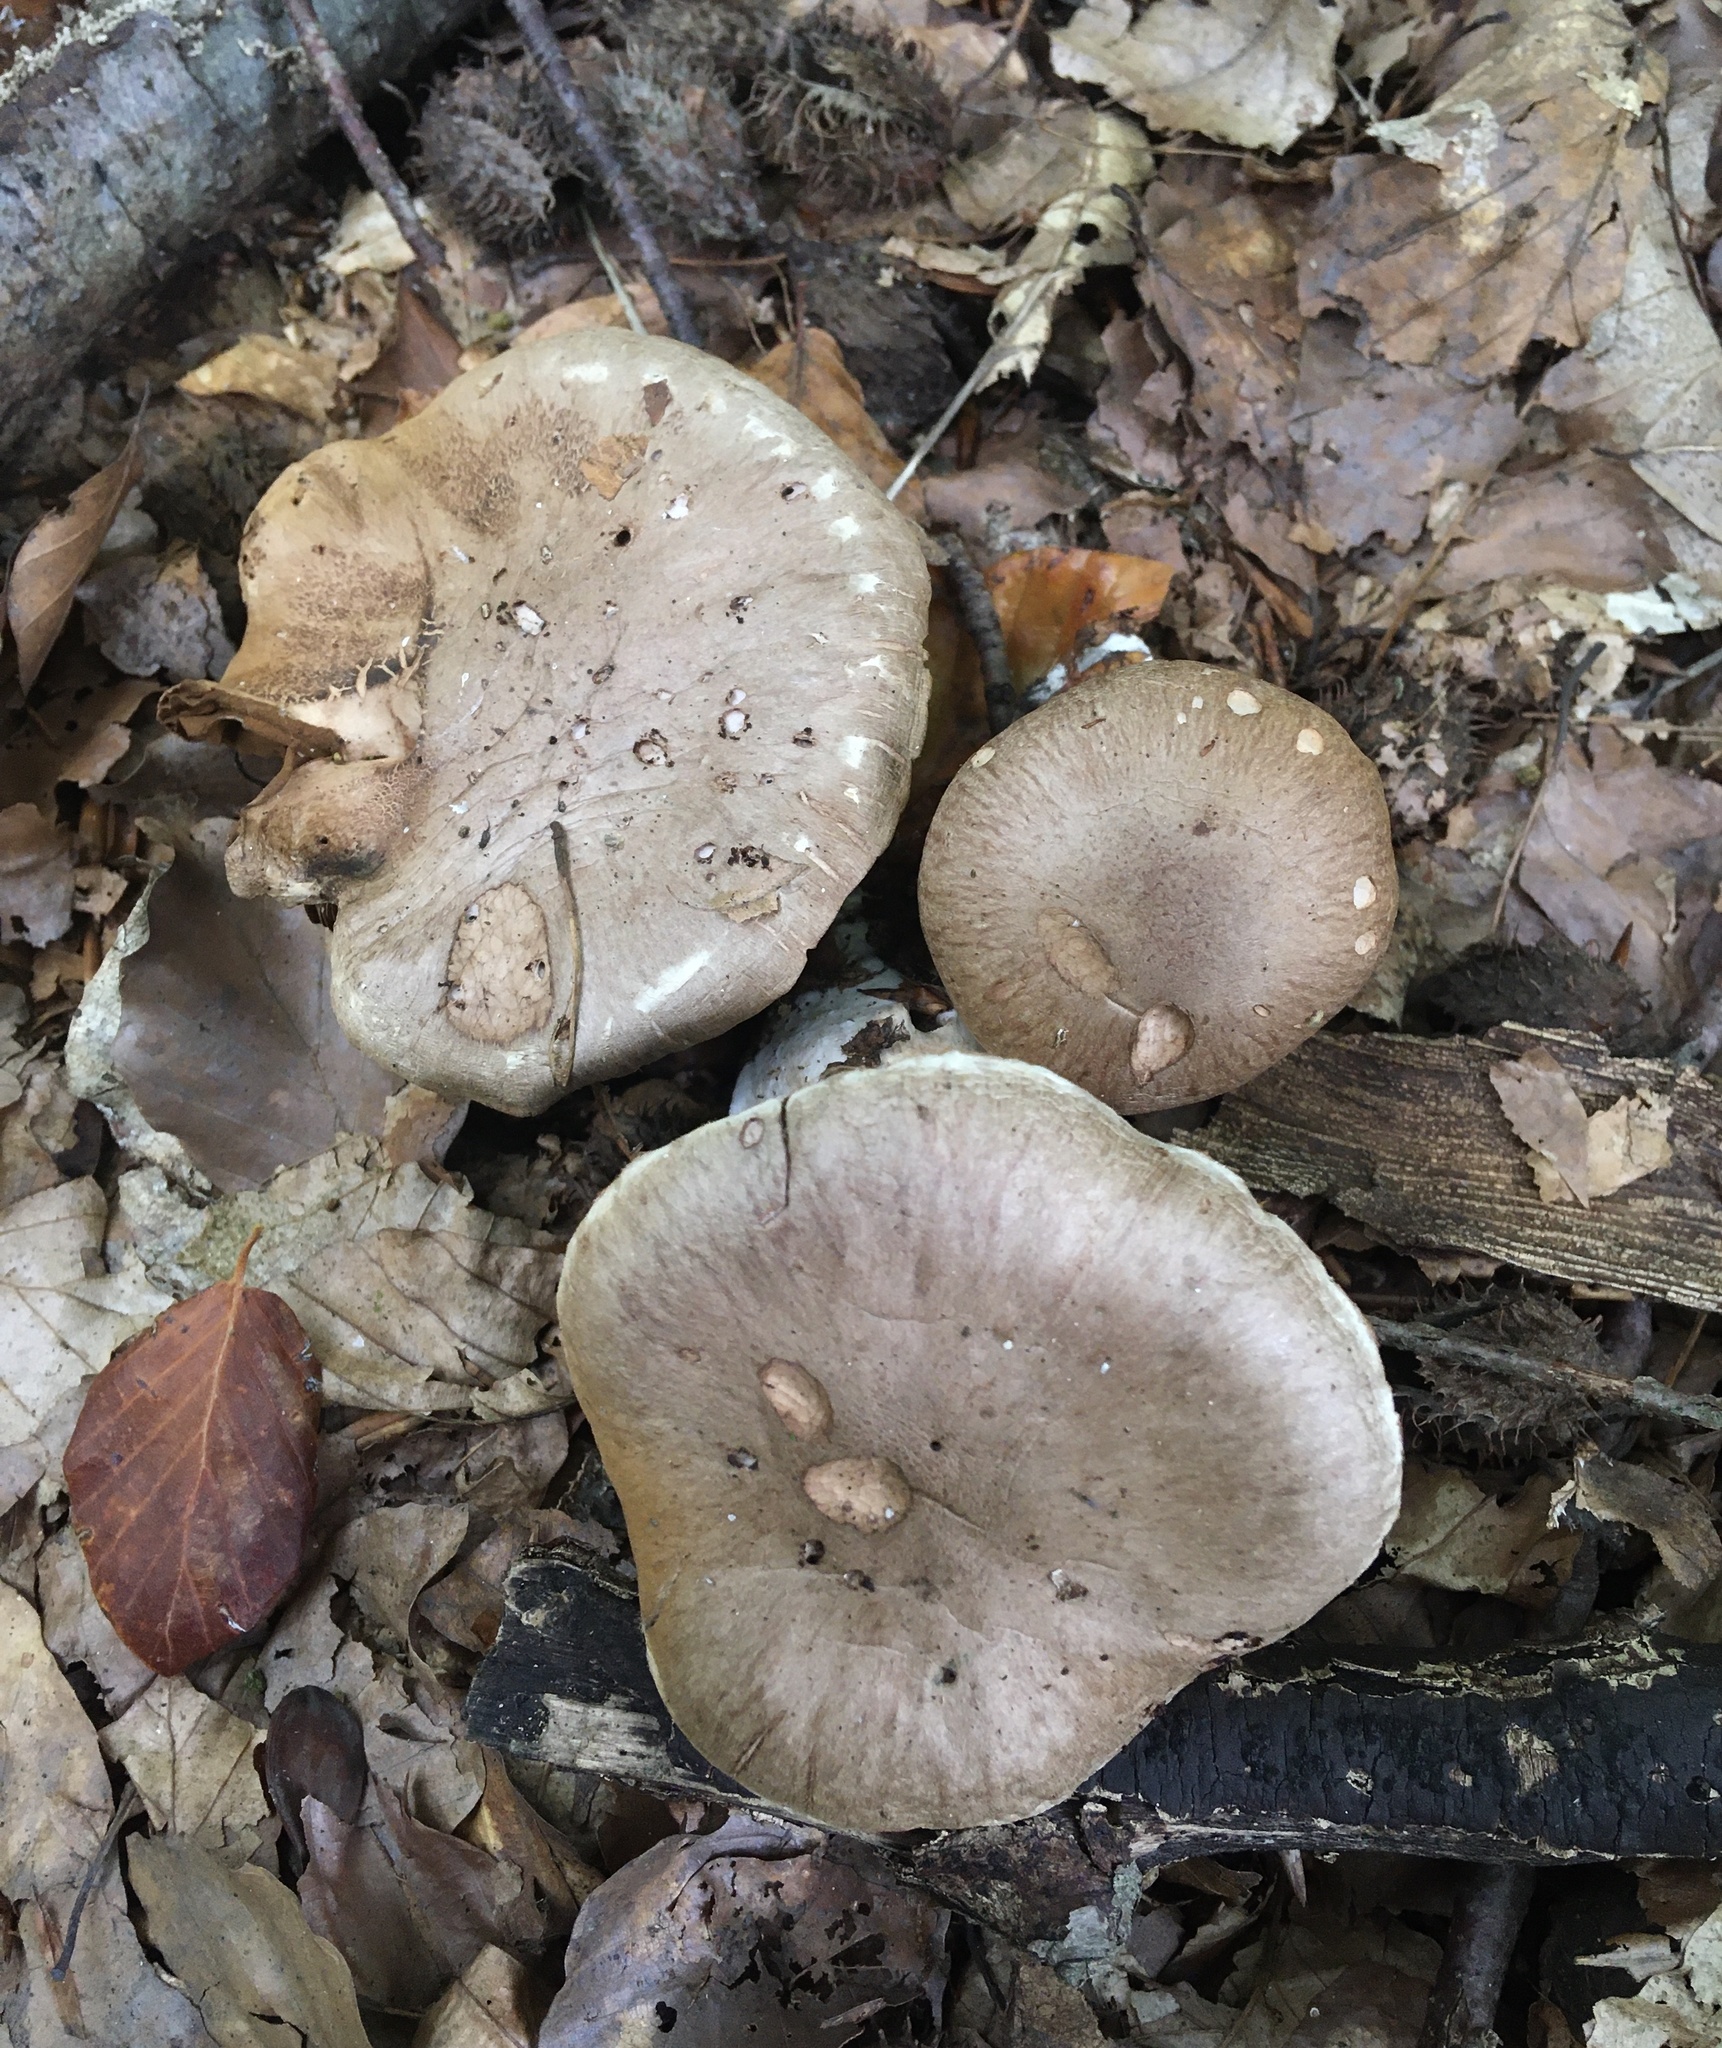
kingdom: Fungi
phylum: Basidiomycota
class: Agaricomycetes
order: Agaricales
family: Cortinariaceae
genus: Cortinarius
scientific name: Cortinarius torvus
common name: Stocking webcap
